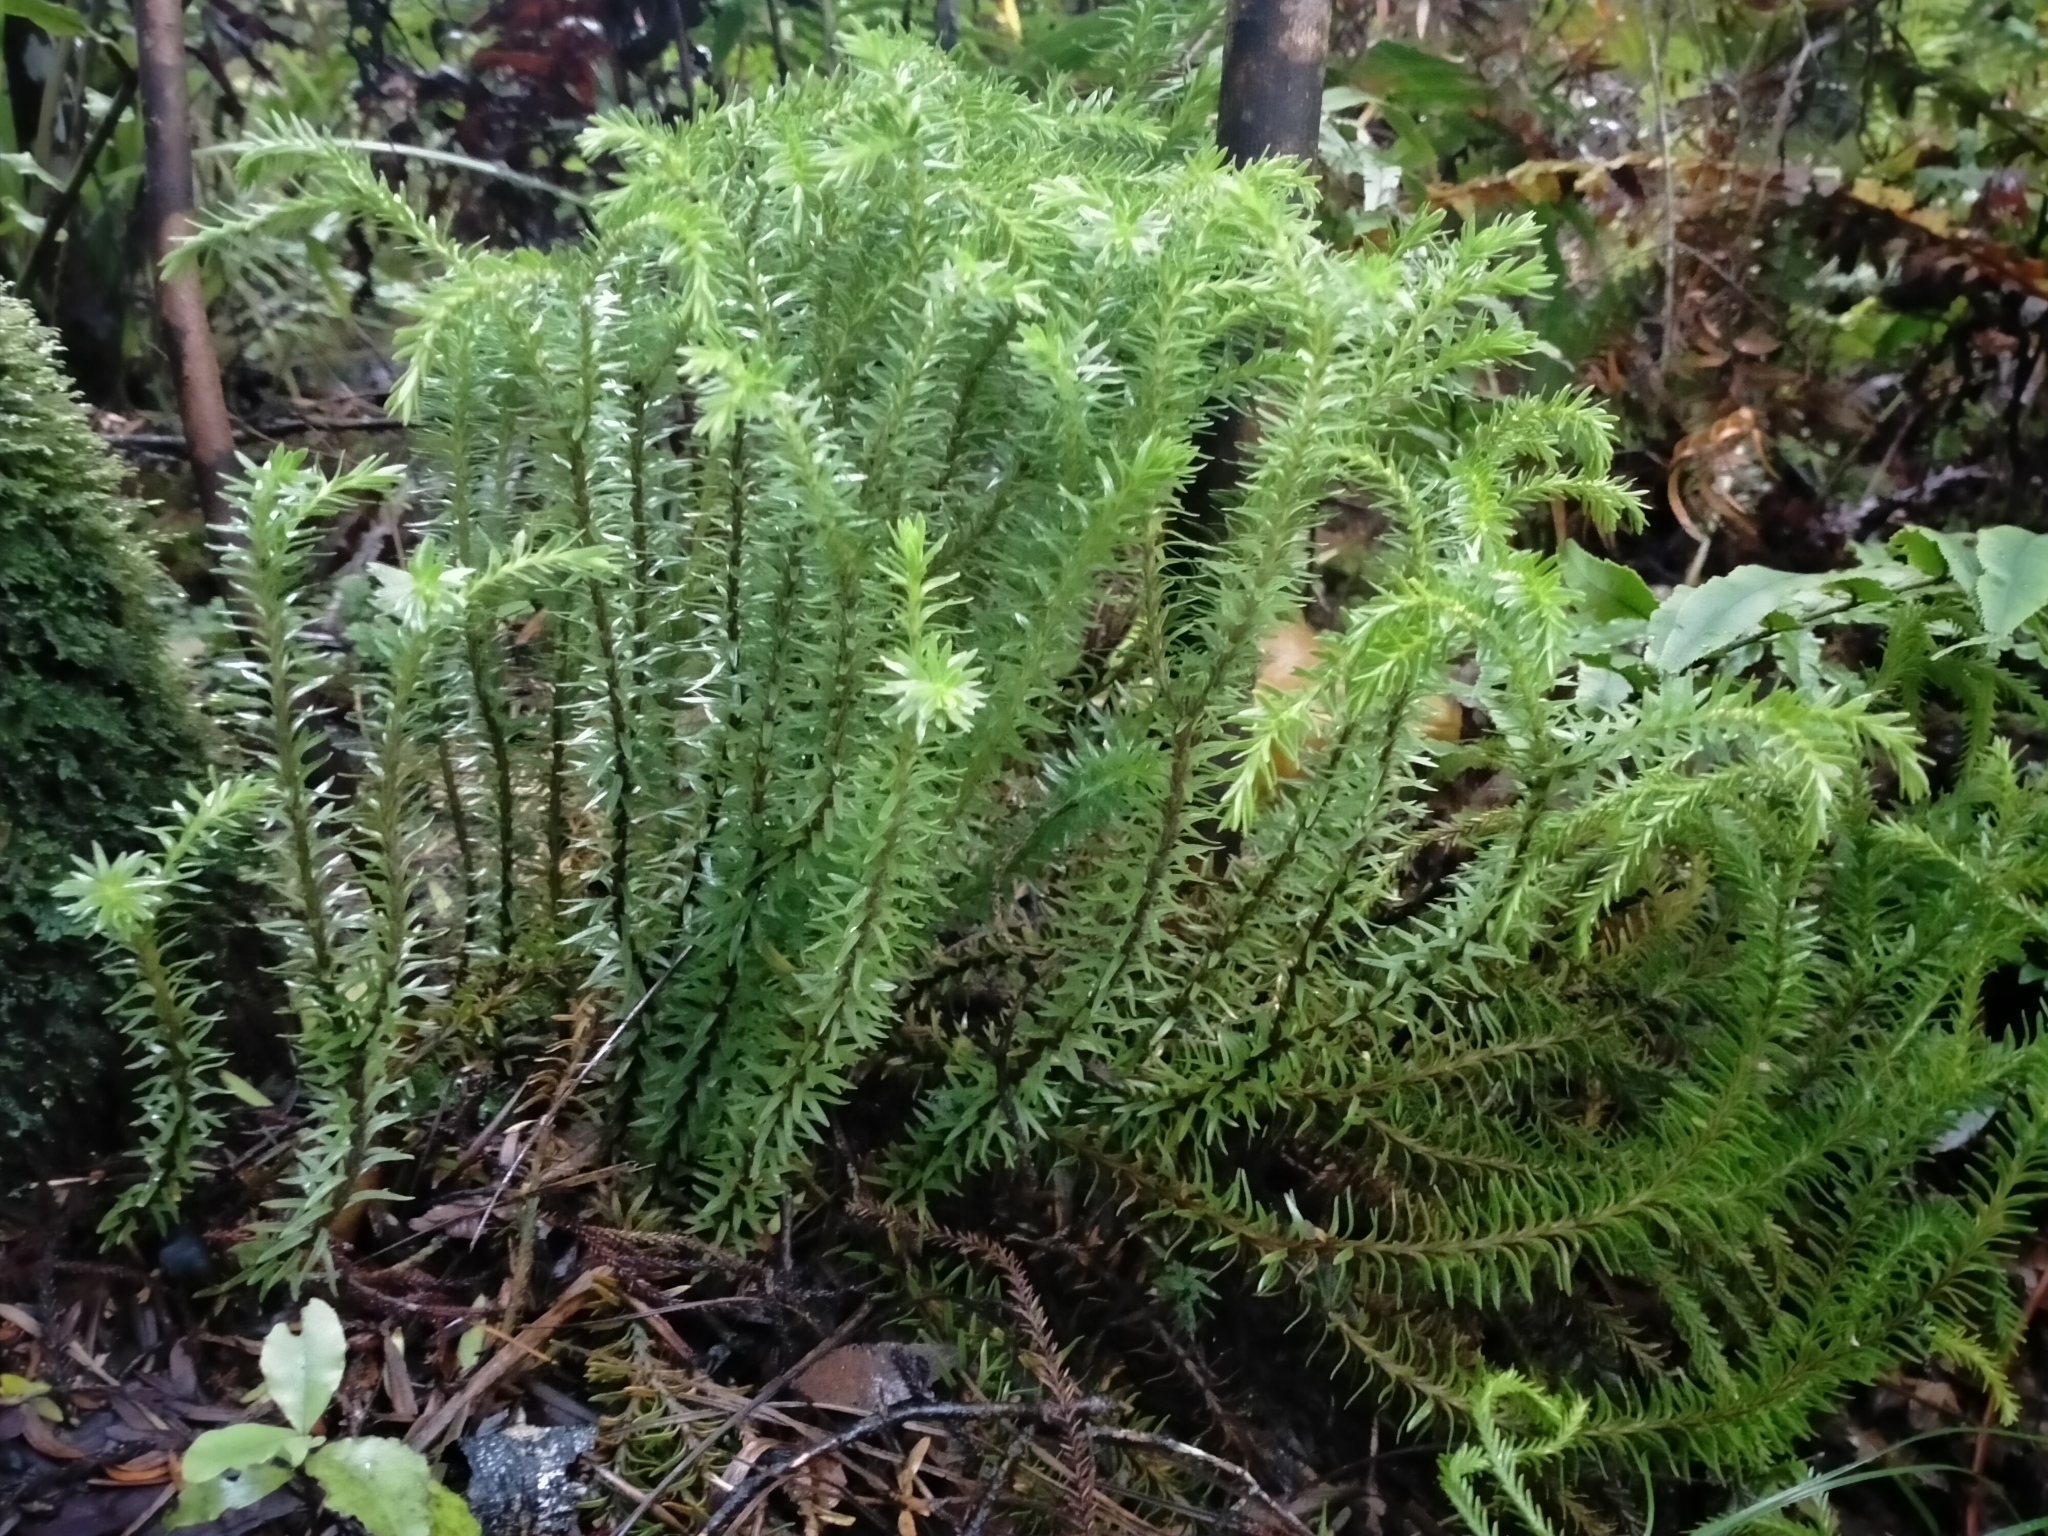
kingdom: Plantae
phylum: Tracheophyta
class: Lycopodiopsida
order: Lycopodiales
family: Lycopodiaceae
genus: Phlegmariurus
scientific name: Phlegmariurus varius
